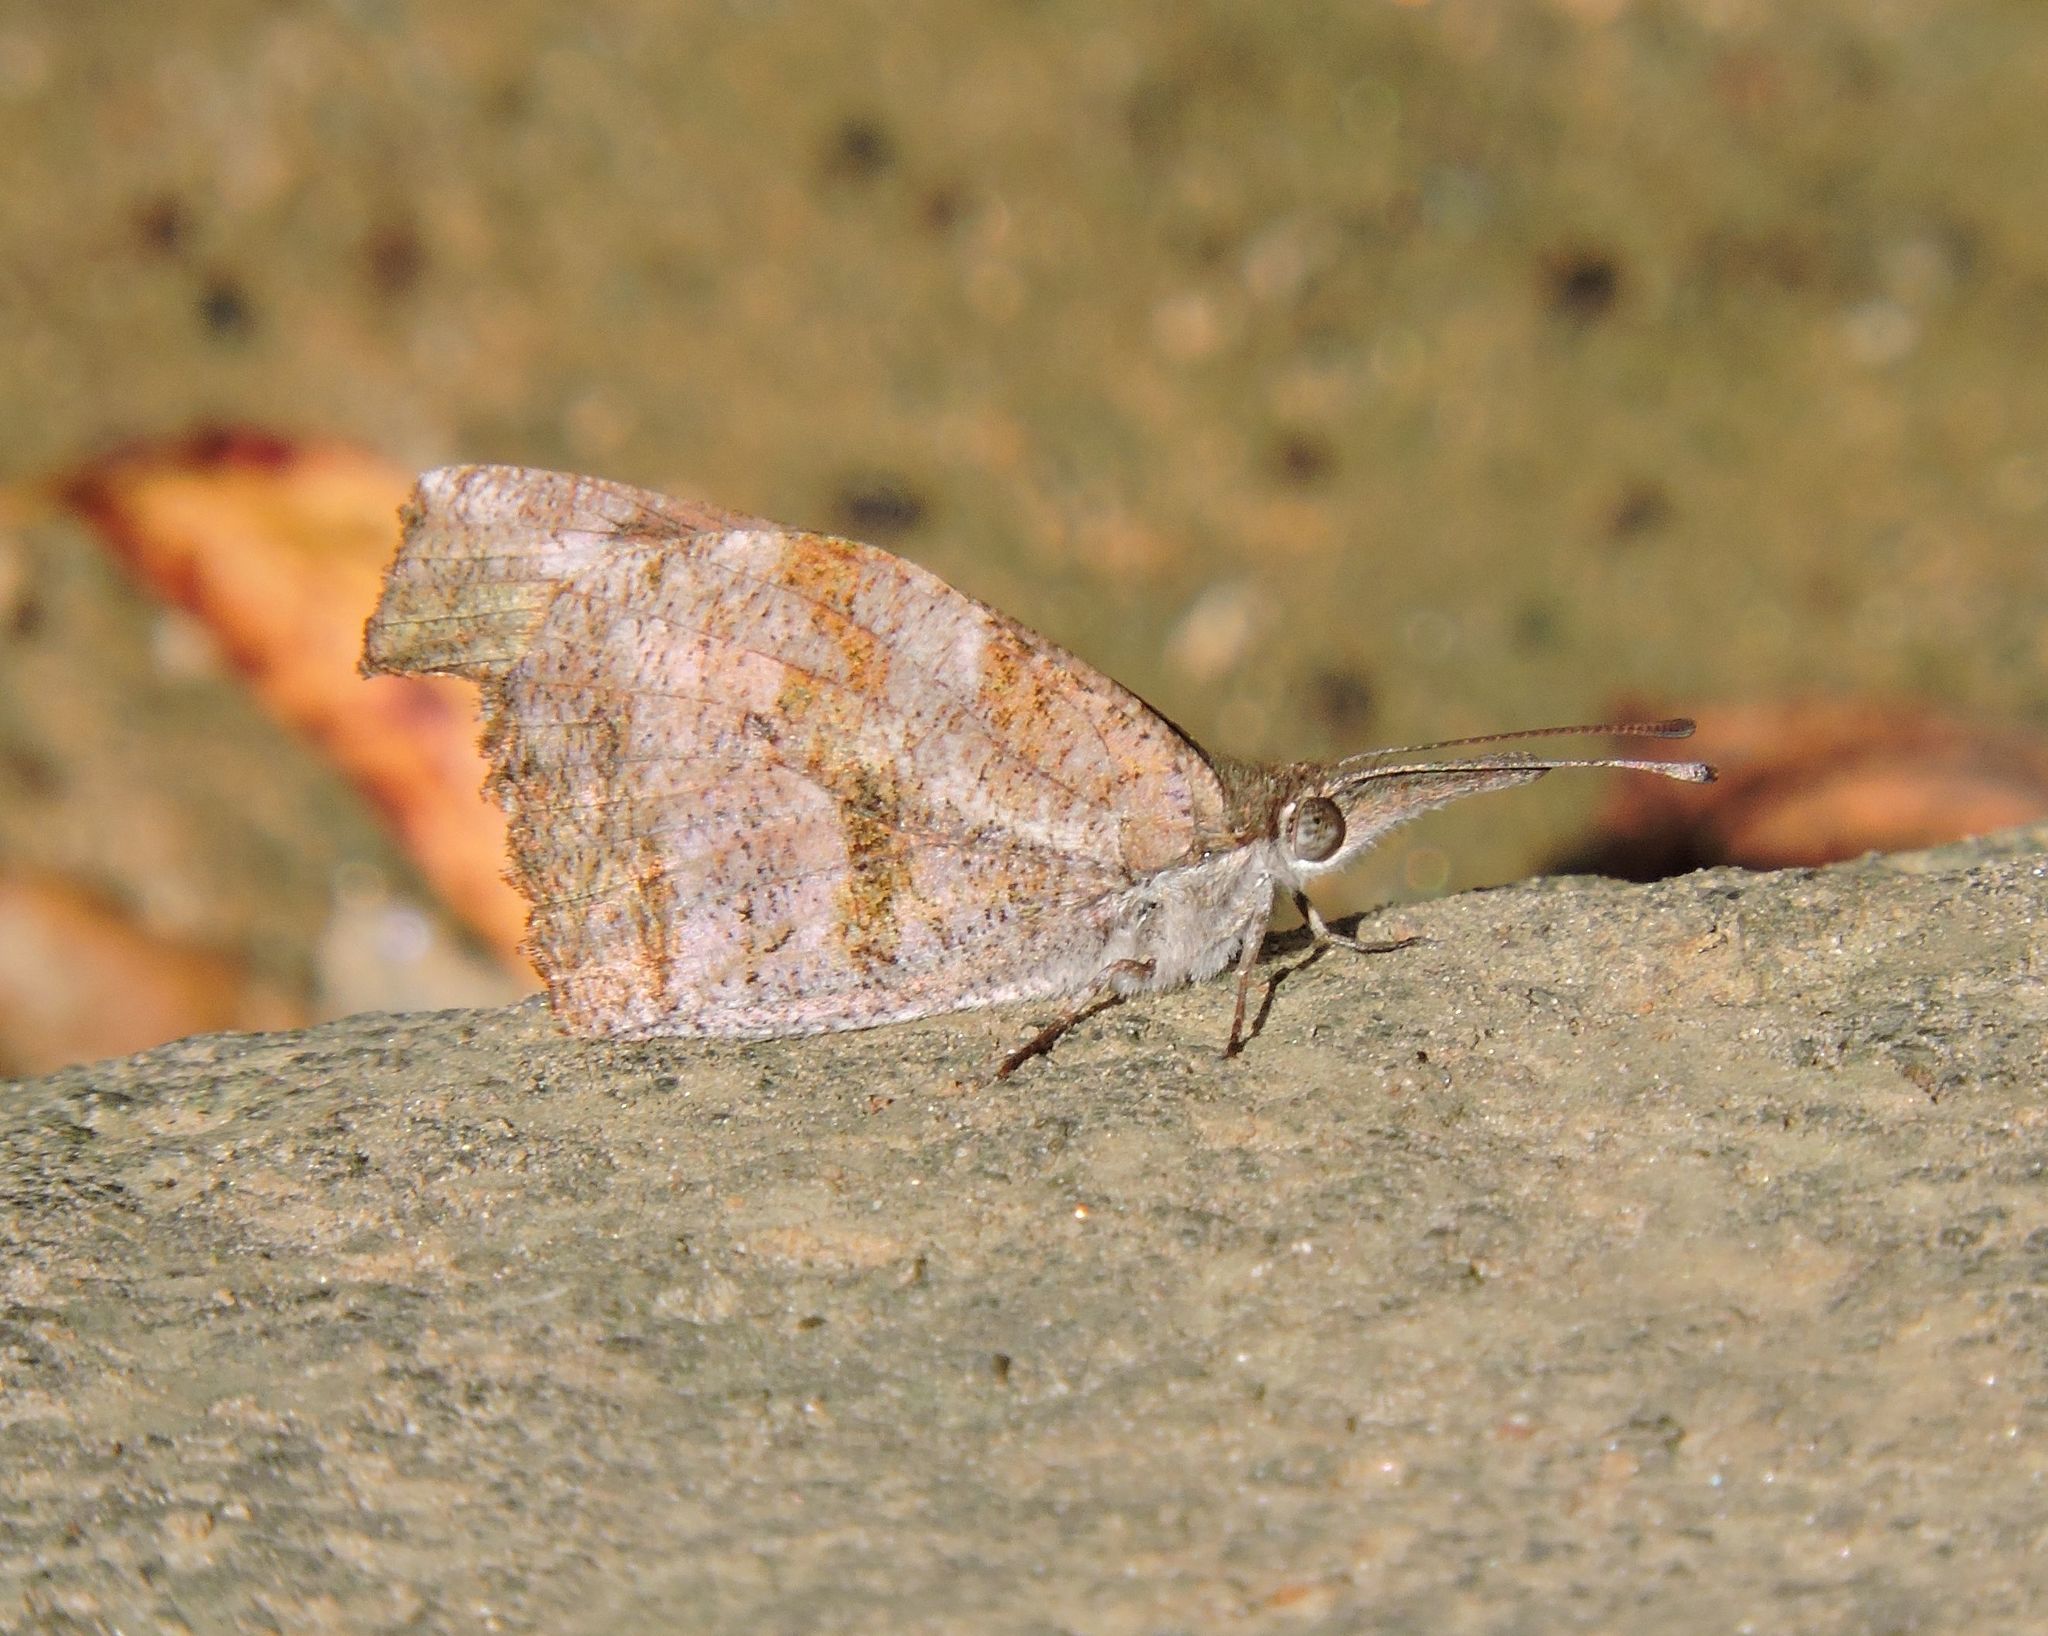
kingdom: Animalia
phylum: Arthropoda
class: Insecta
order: Lepidoptera
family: Nymphalidae
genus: Libytheana
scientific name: Libytheana carinenta
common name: American snout
